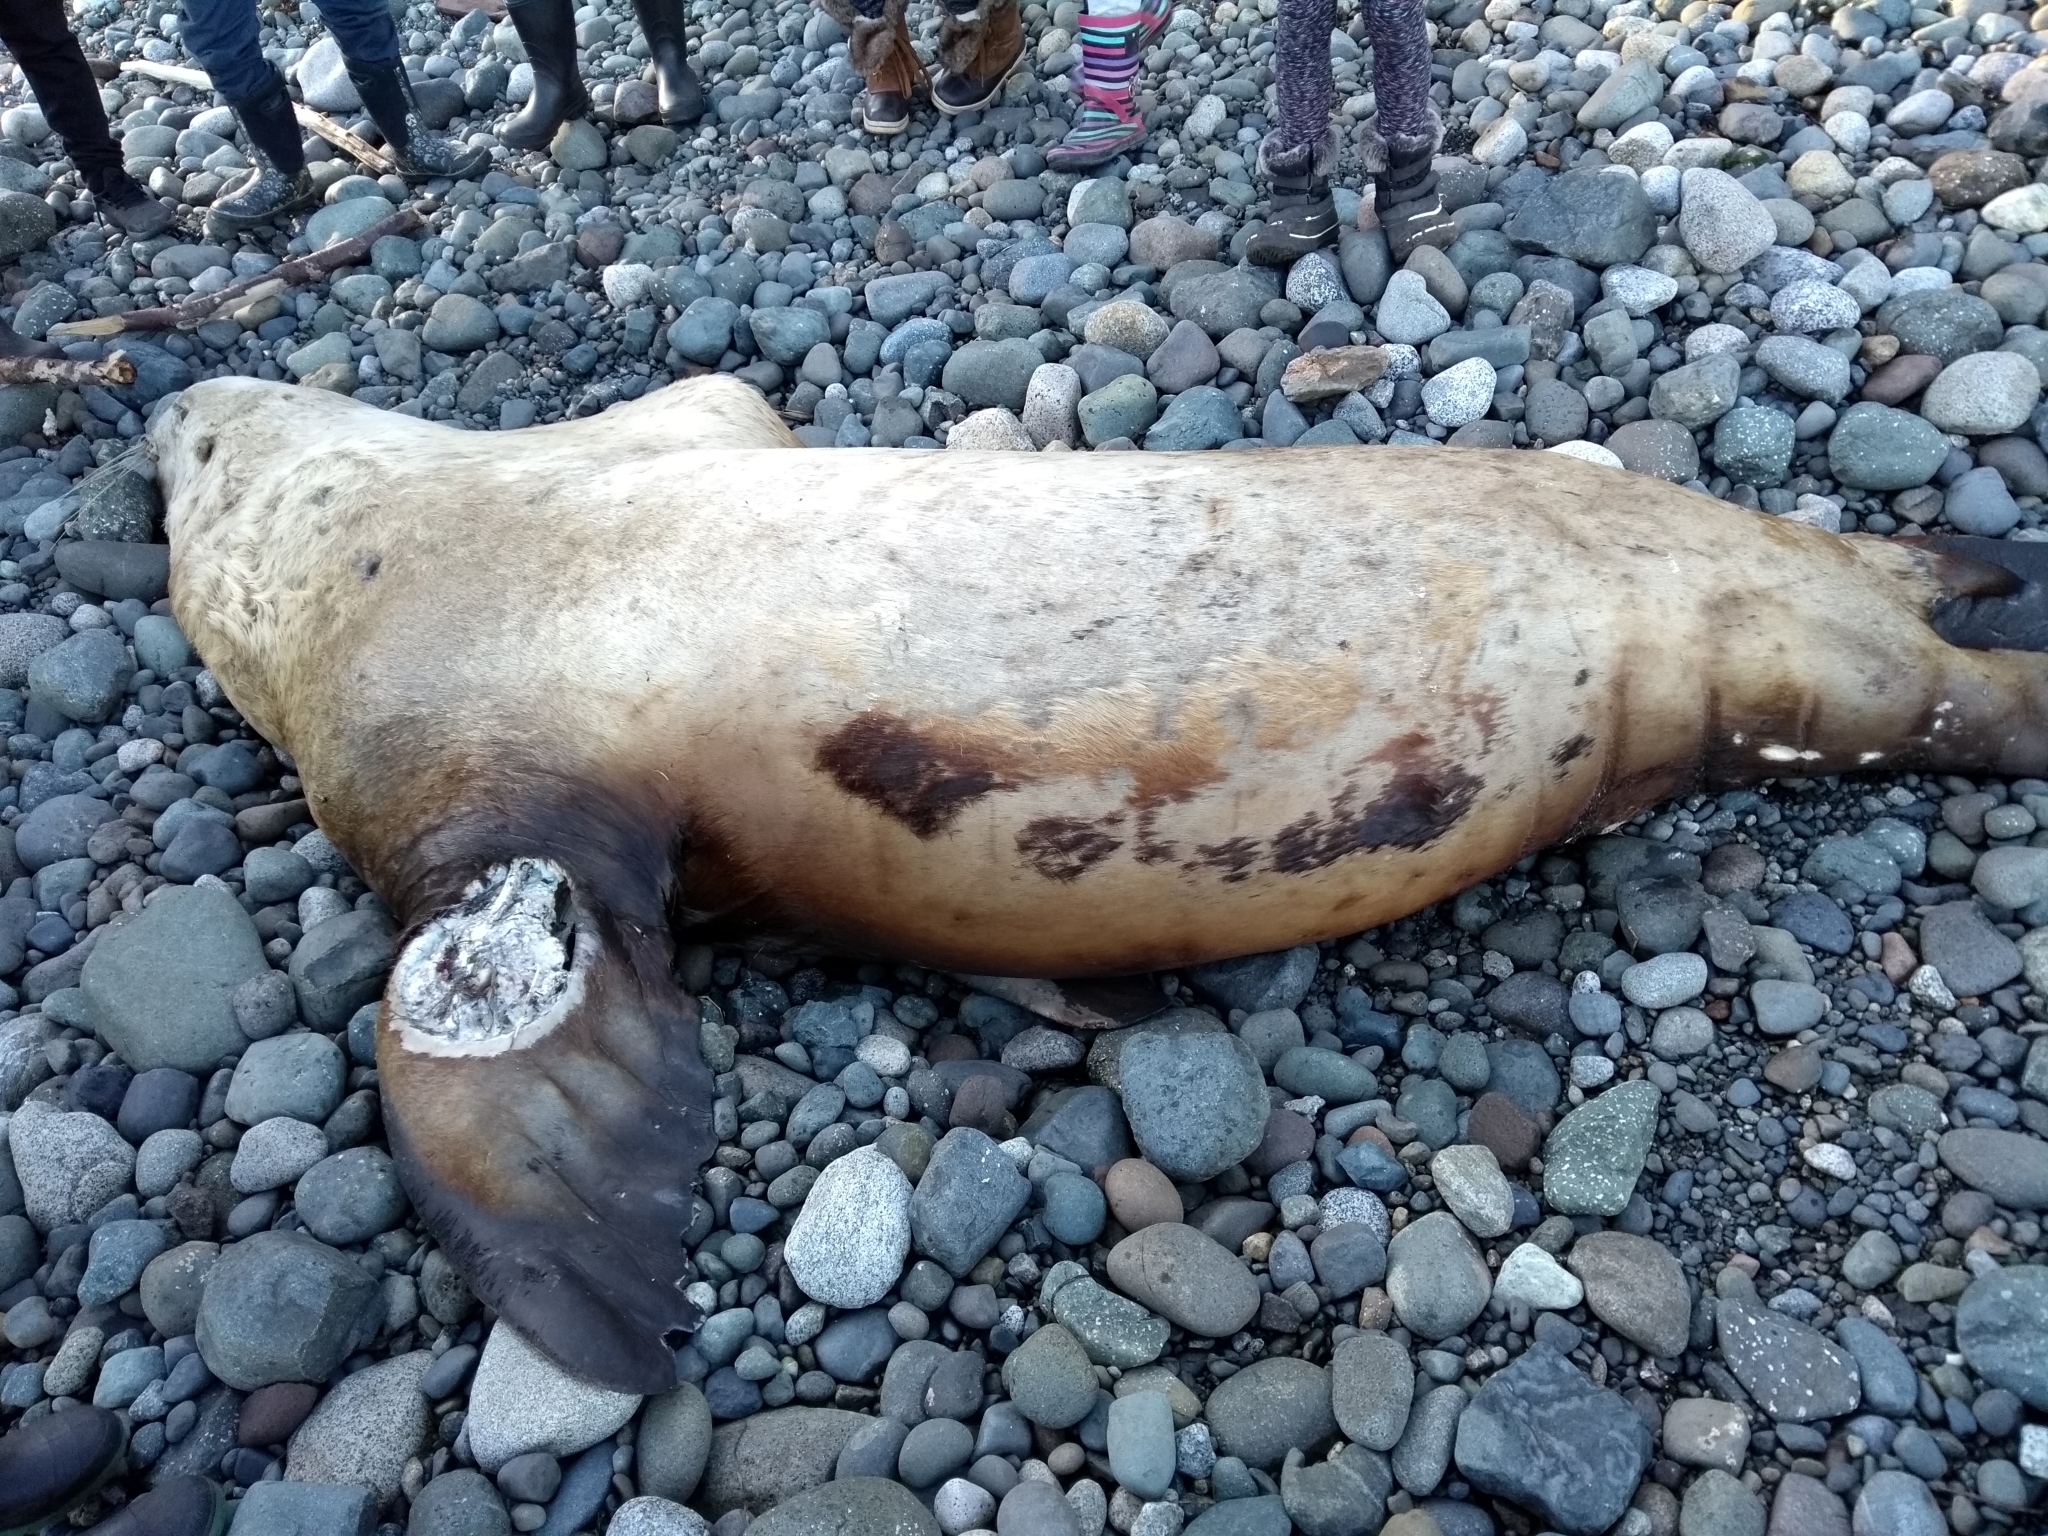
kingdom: Animalia
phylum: Chordata
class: Mammalia
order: Carnivora
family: Otariidae
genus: Eumetopias
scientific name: Eumetopias jubatus
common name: Steller sea lion
